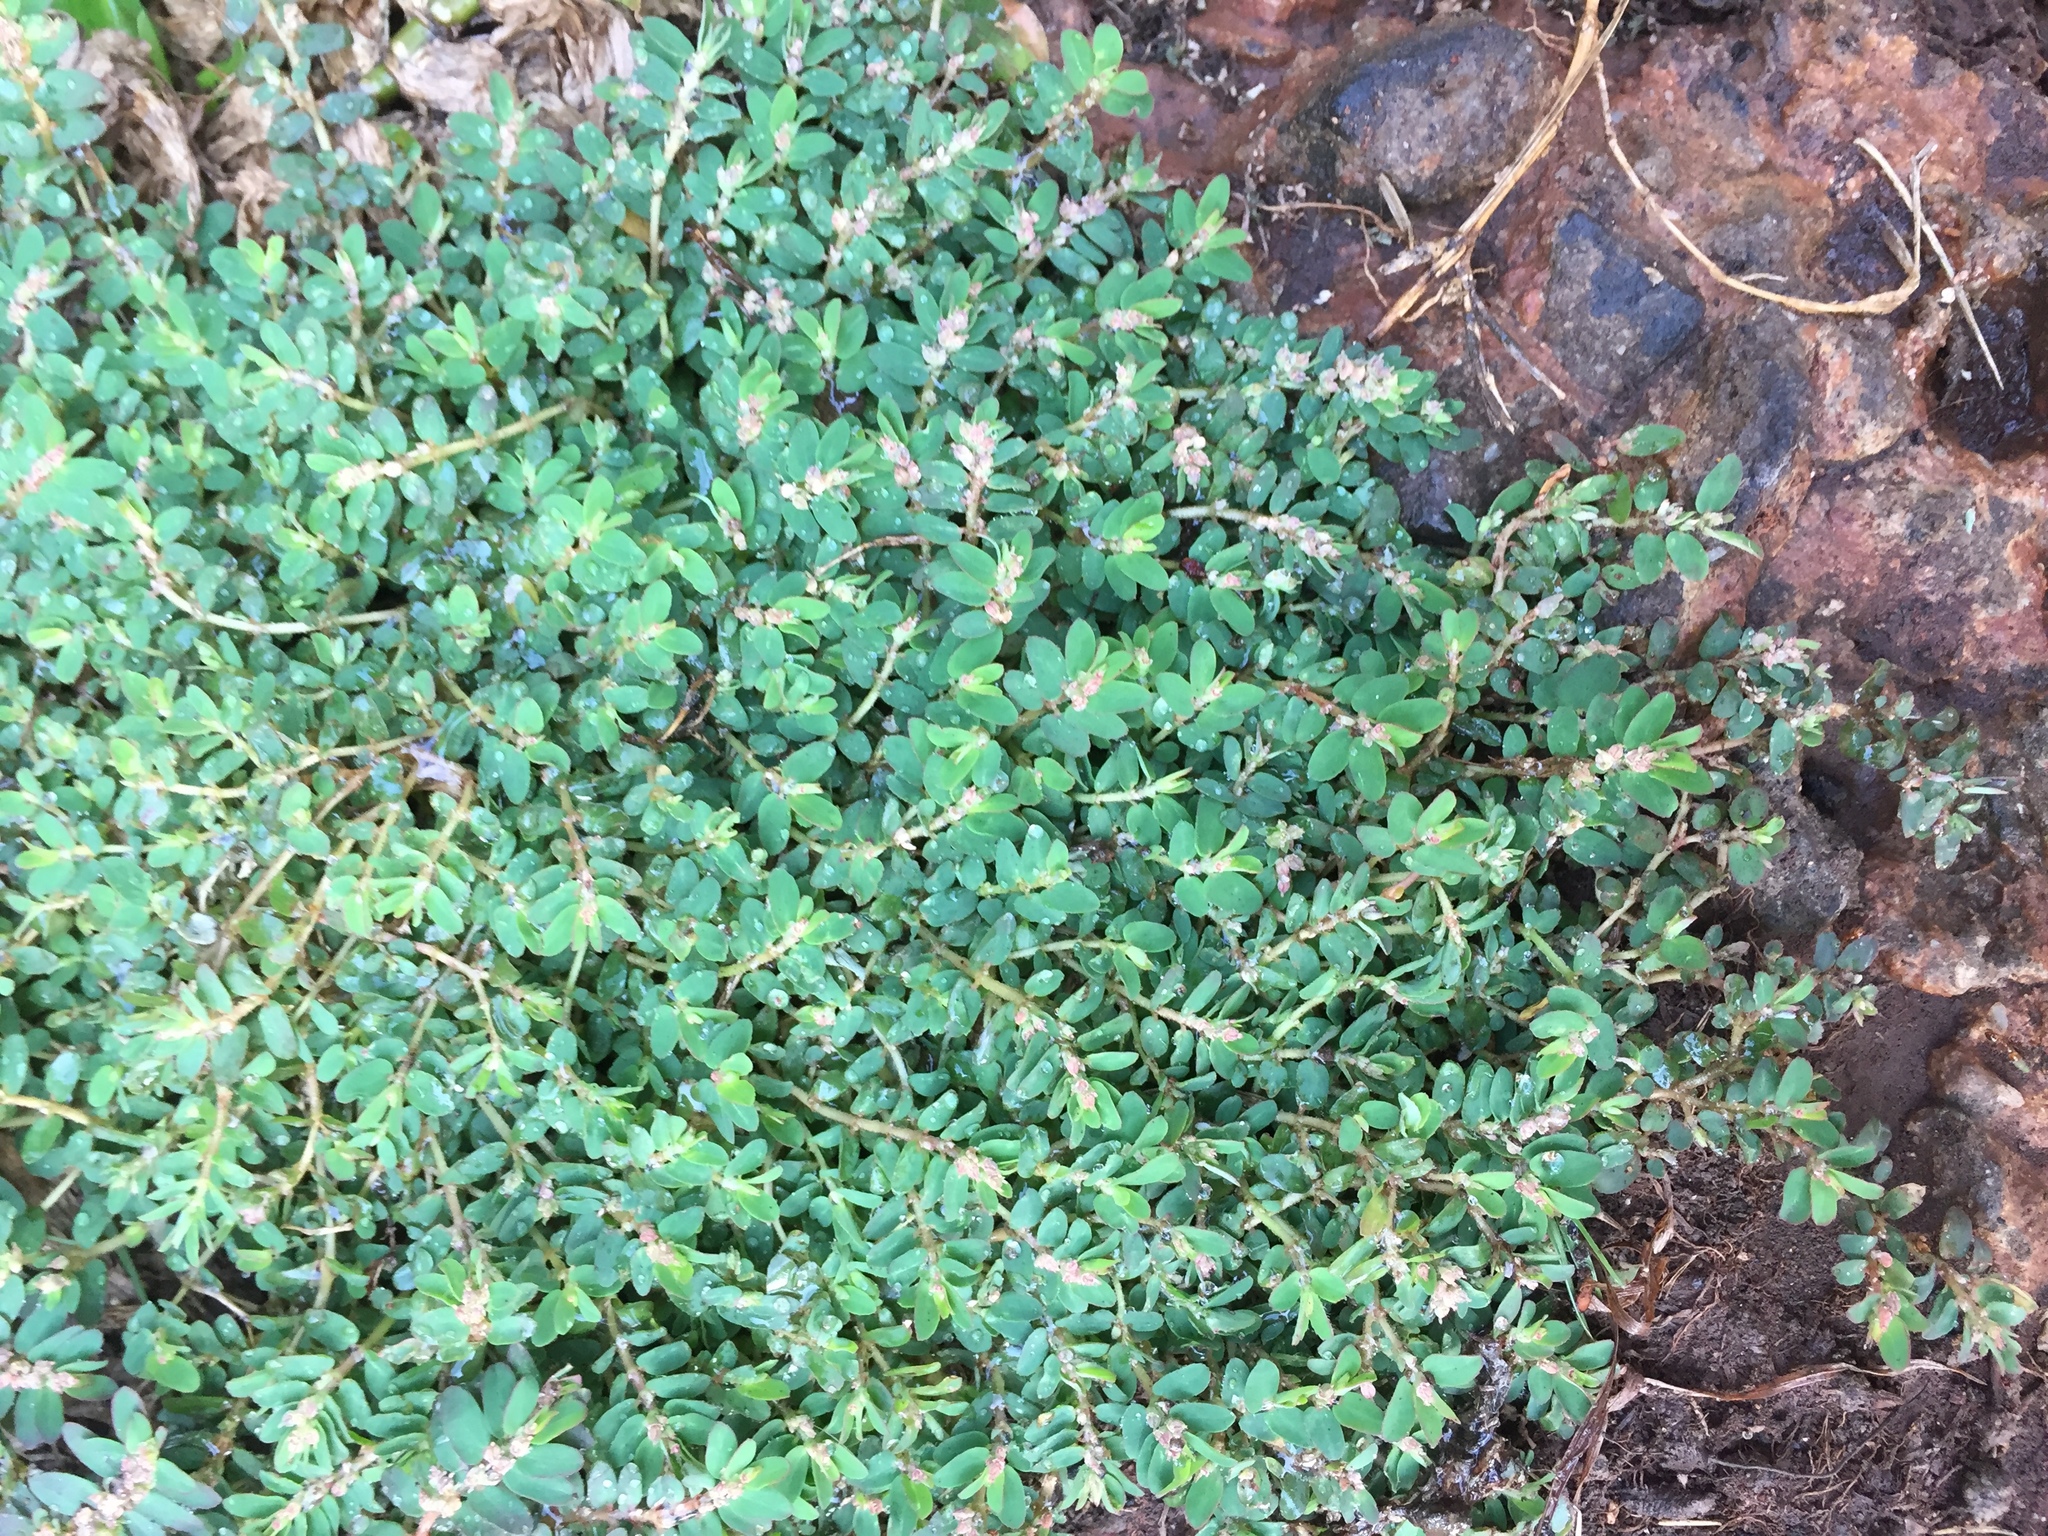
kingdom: Plantae
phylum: Tracheophyta
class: Magnoliopsida
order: Malpighiales
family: Euphorbiaceae
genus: Euphorbia
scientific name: Euphorbia thymifolia
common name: Gulf sandmat
